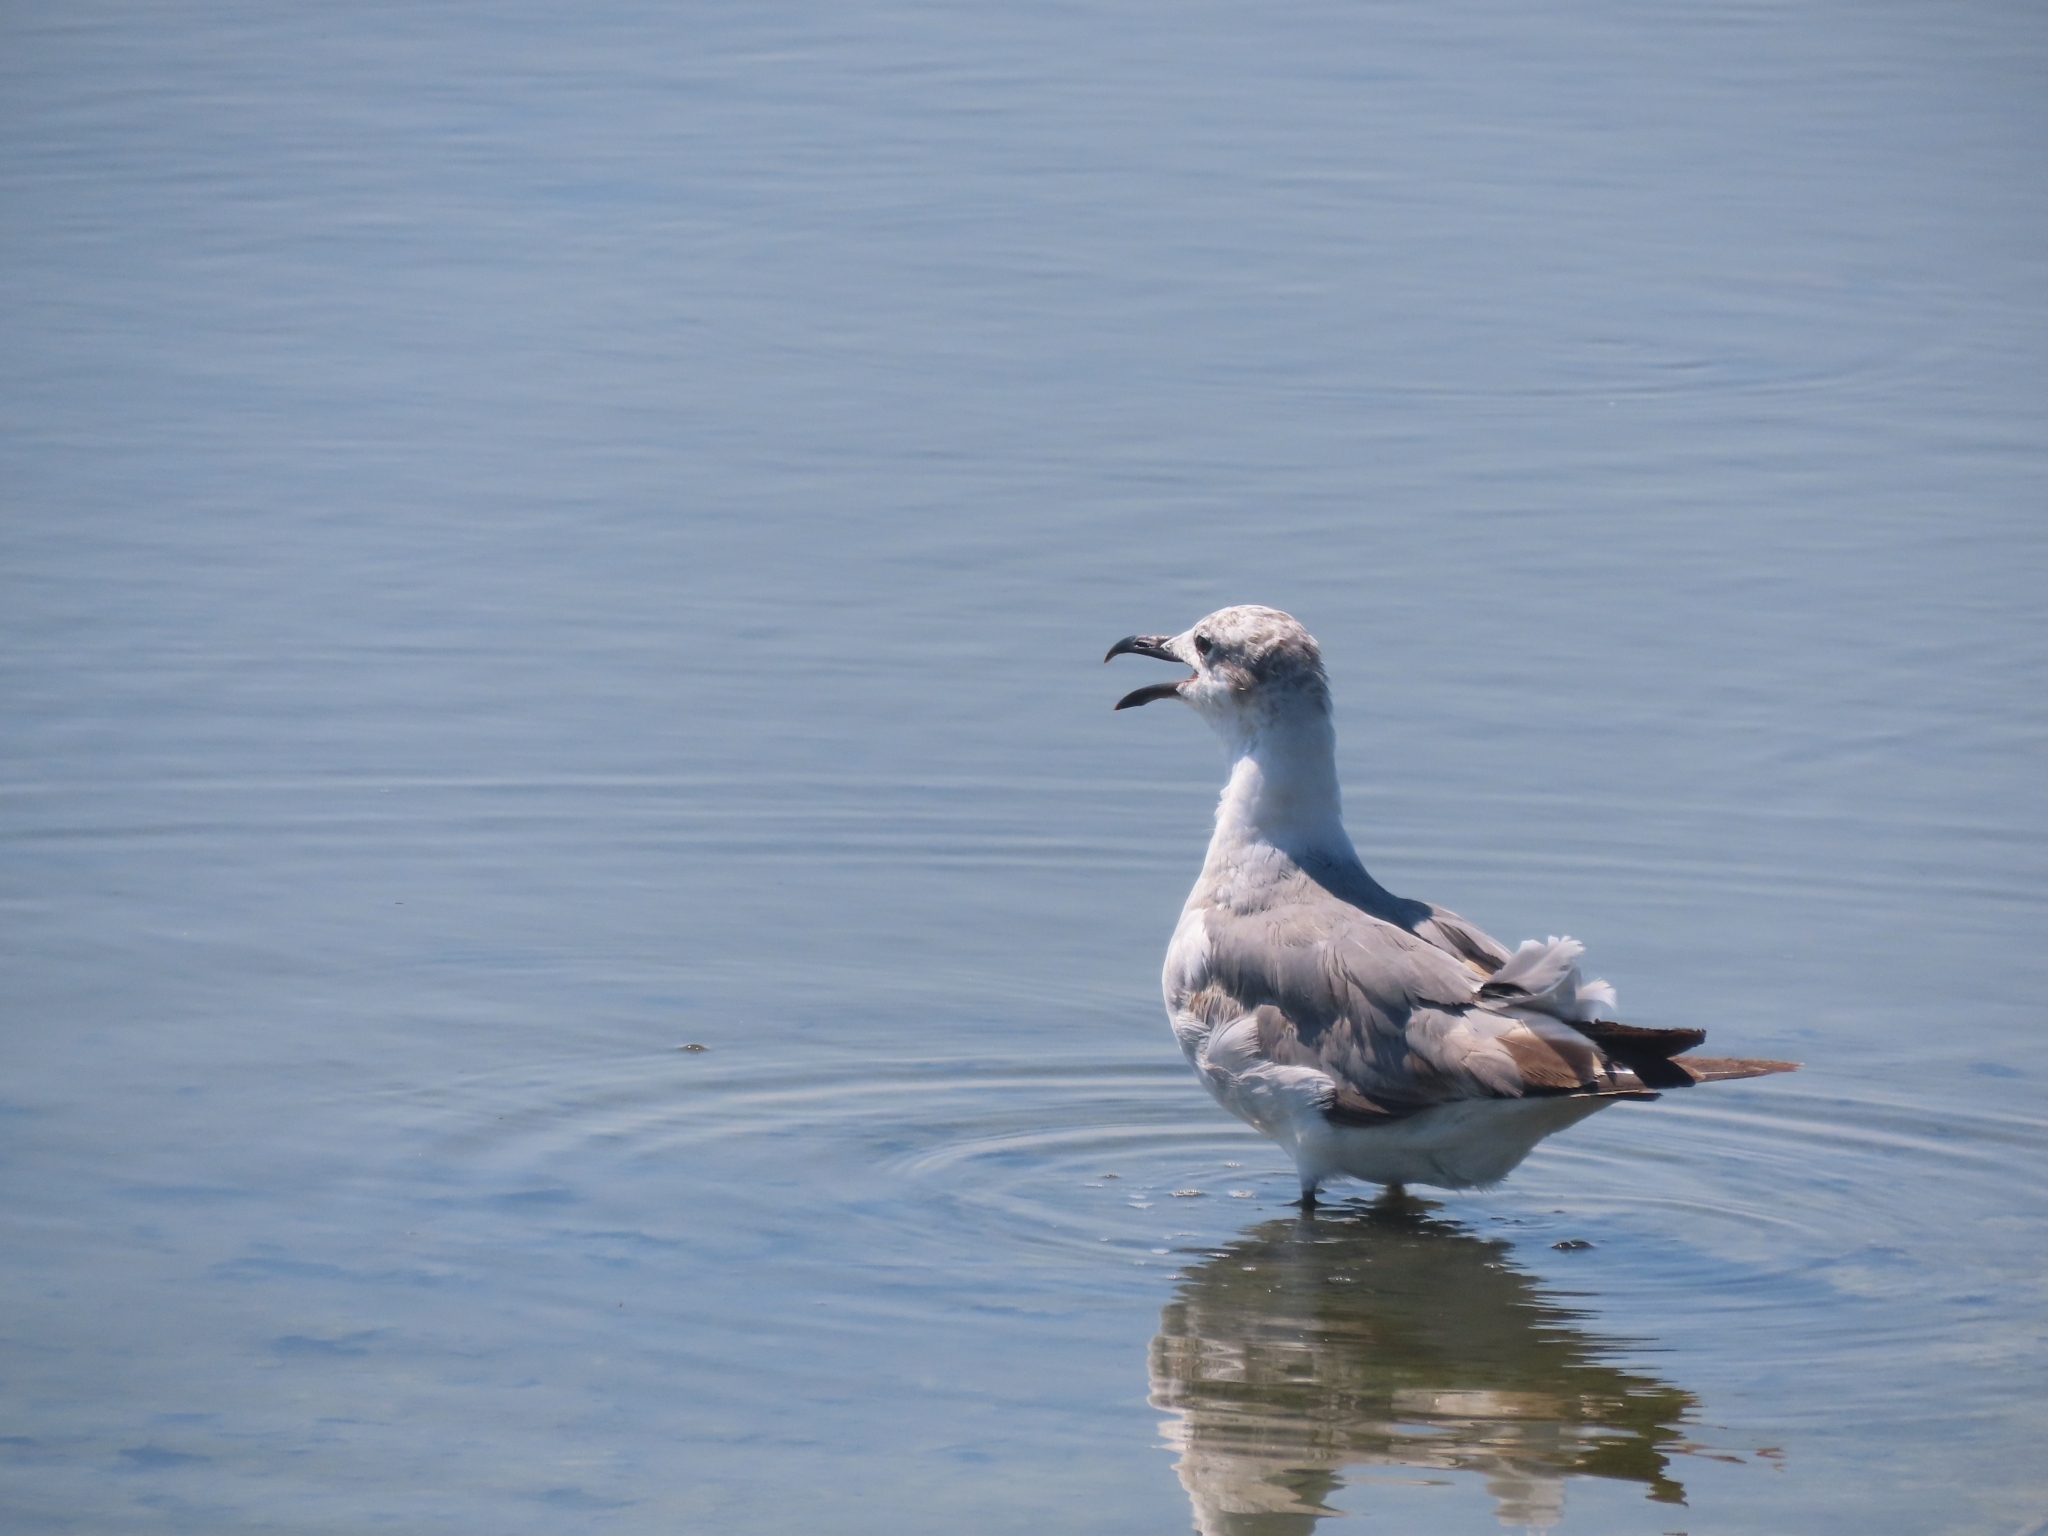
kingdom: Animalia
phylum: Chordata
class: Aves
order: Charadriiformes
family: Laridae
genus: Leucophaeus
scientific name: Leucophaeus atricilla
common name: Laughing gull
